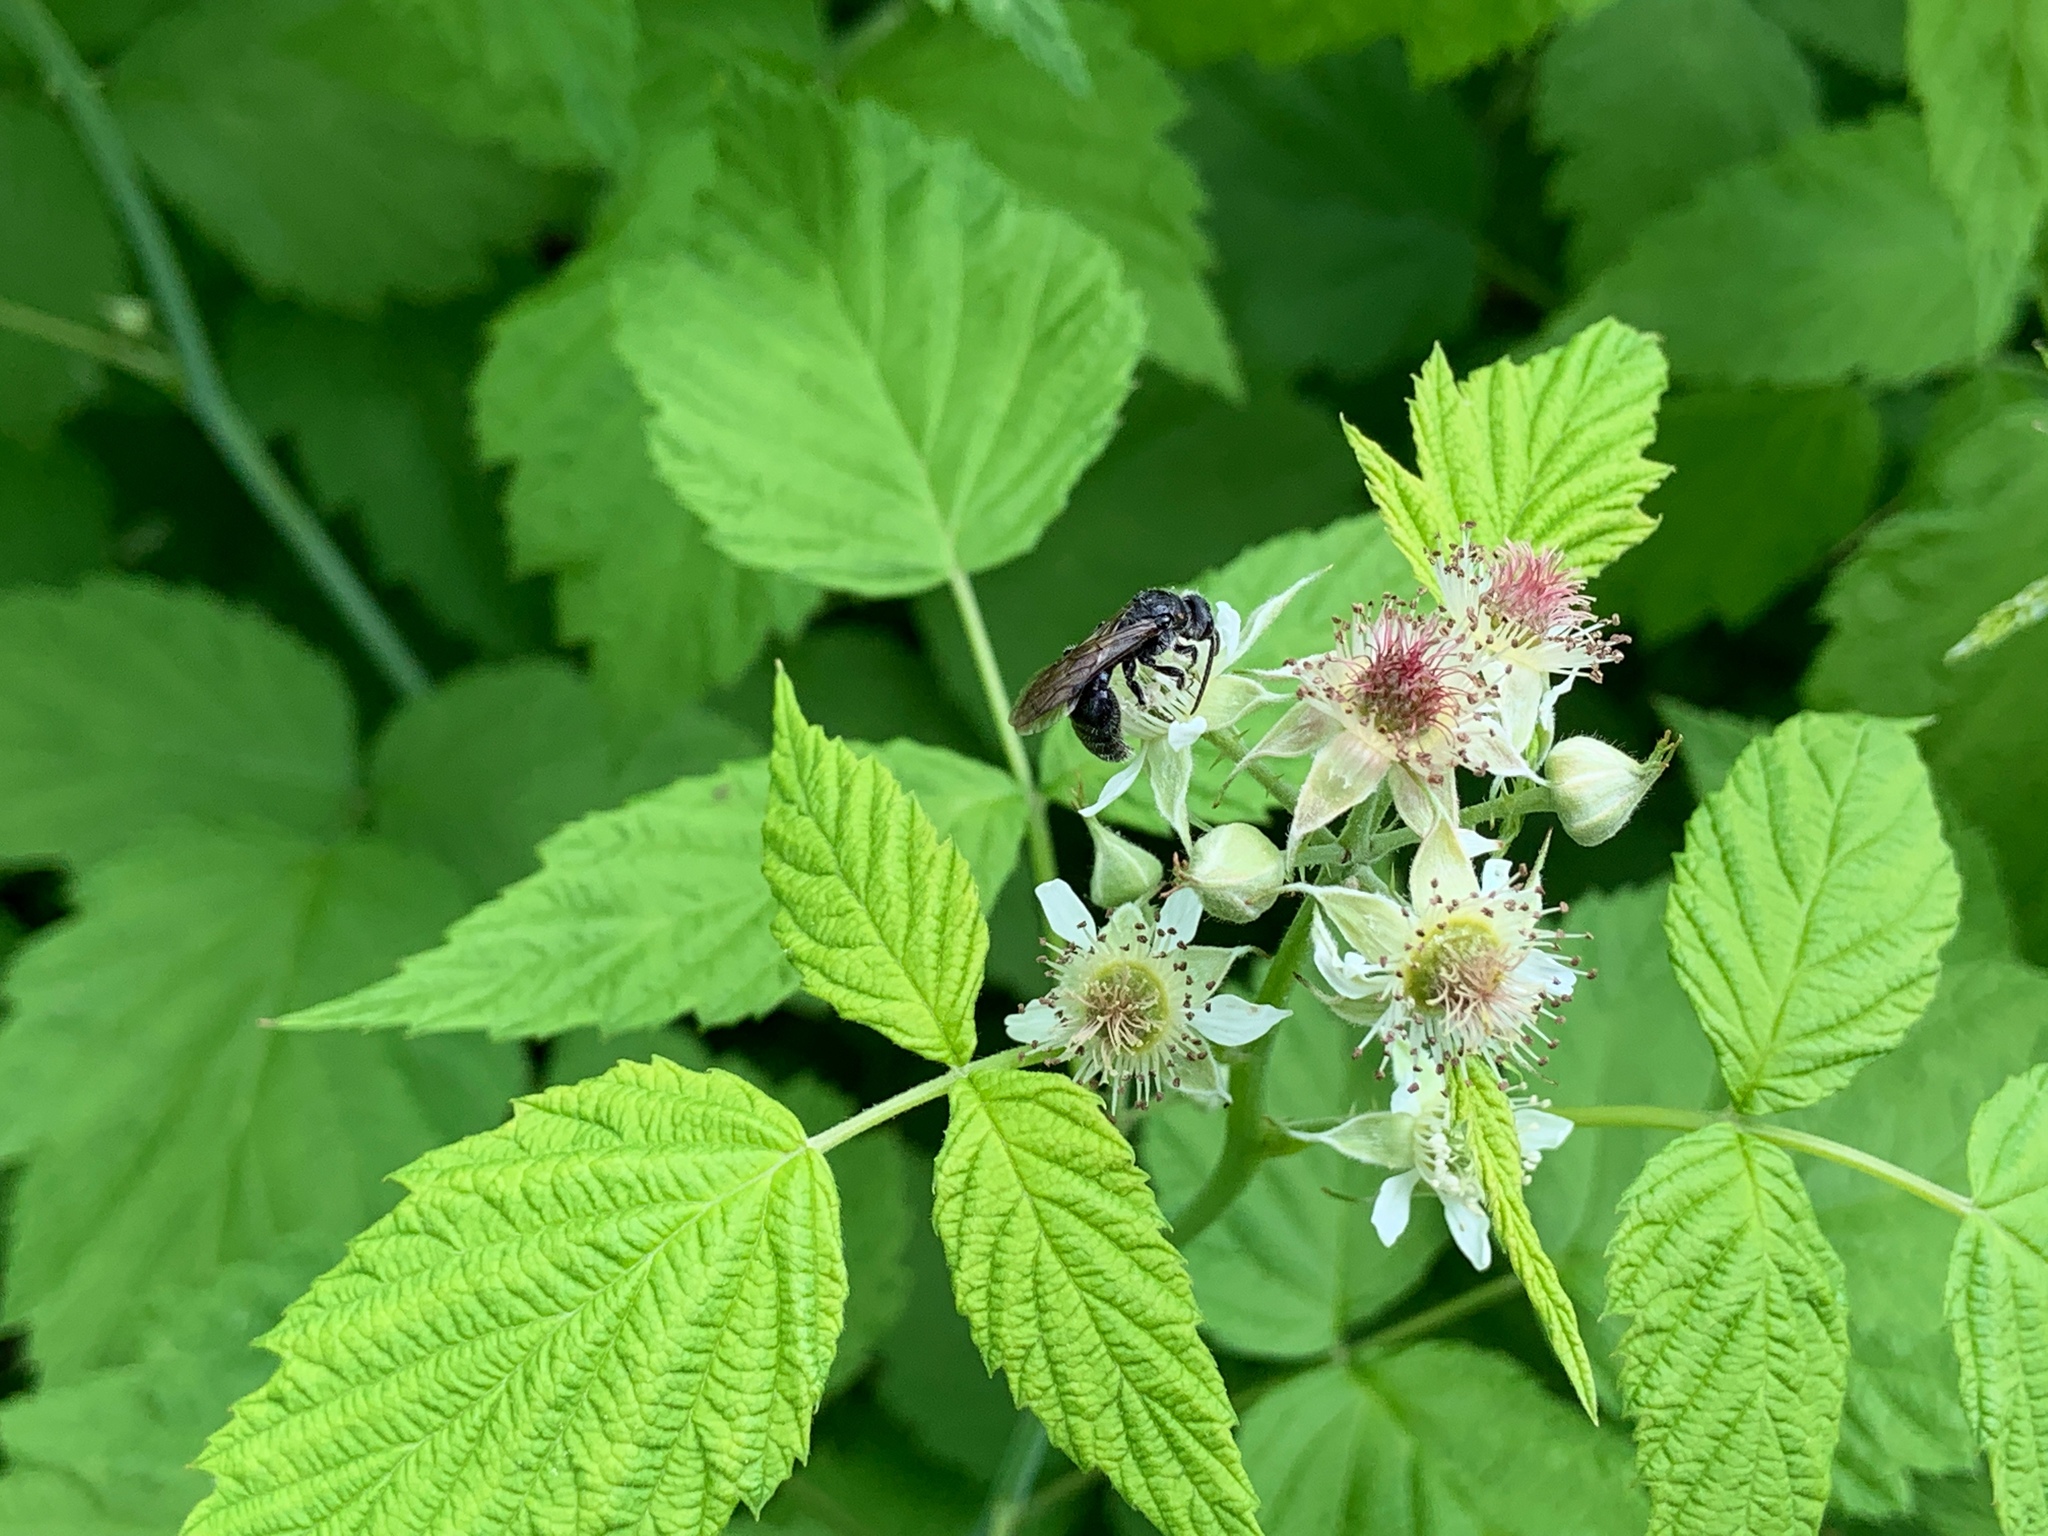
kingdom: Plantae
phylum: Tracheophyta
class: Magnoliopsida
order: Rosales
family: Rosaceae
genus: Rubus
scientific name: Rubus occidentalis
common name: Black raspberry
